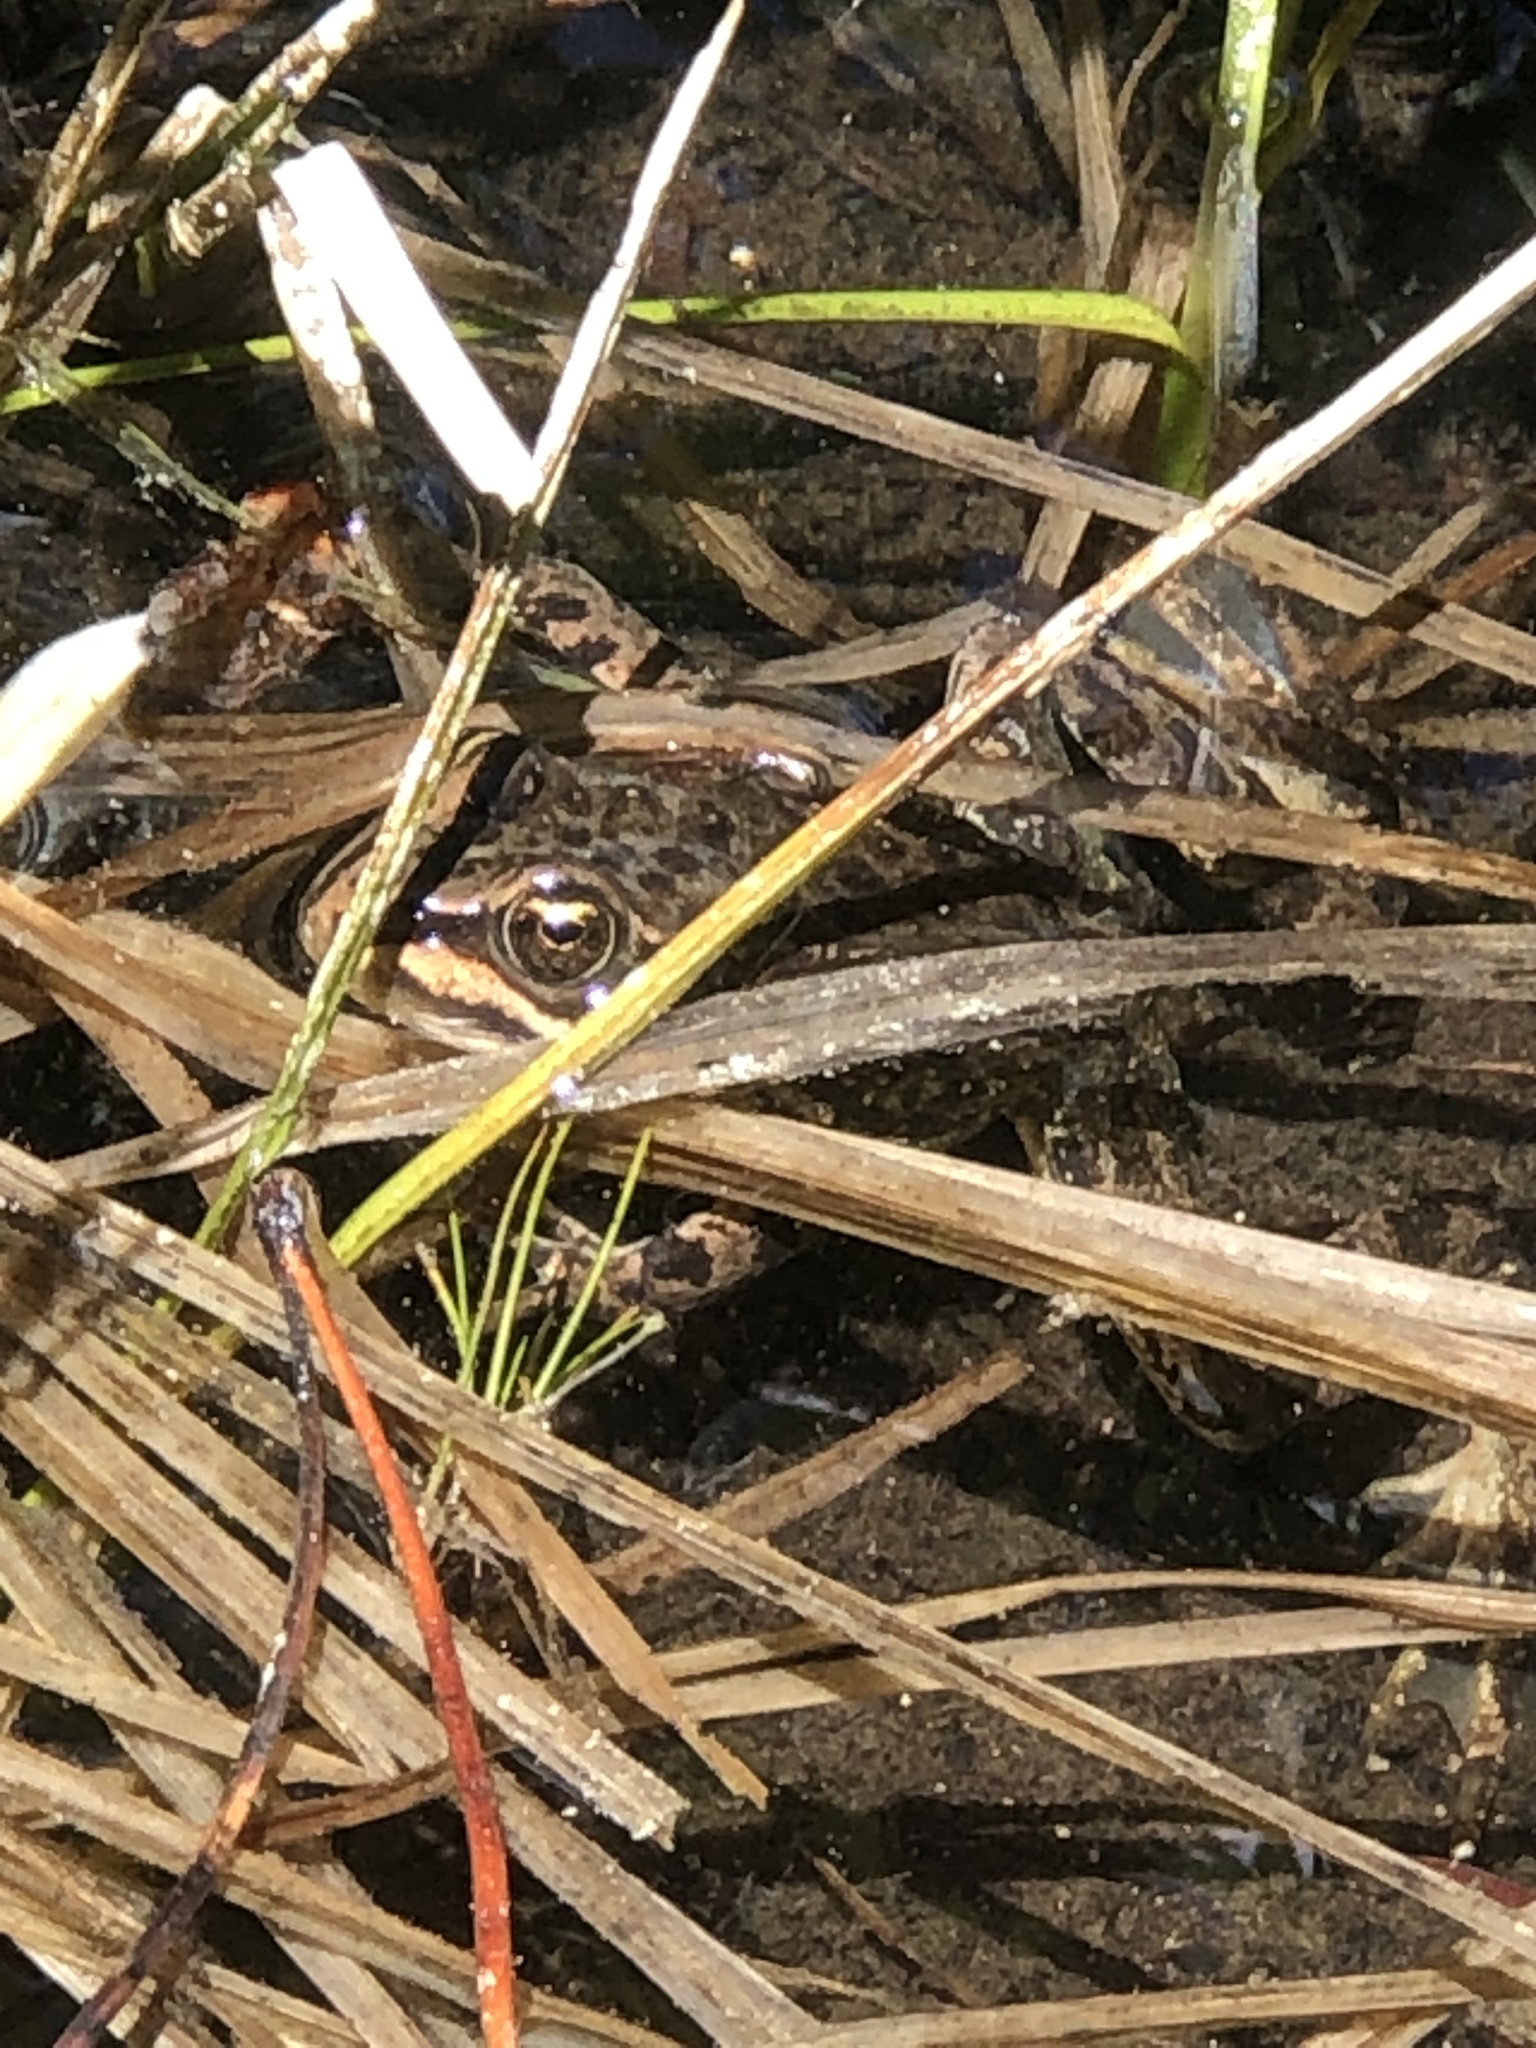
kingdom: Animalia
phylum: Chordata
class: Amphibia
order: Anura
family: Ranidae
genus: Rana
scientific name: Rana luteiventris
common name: Columbia spotted frog
